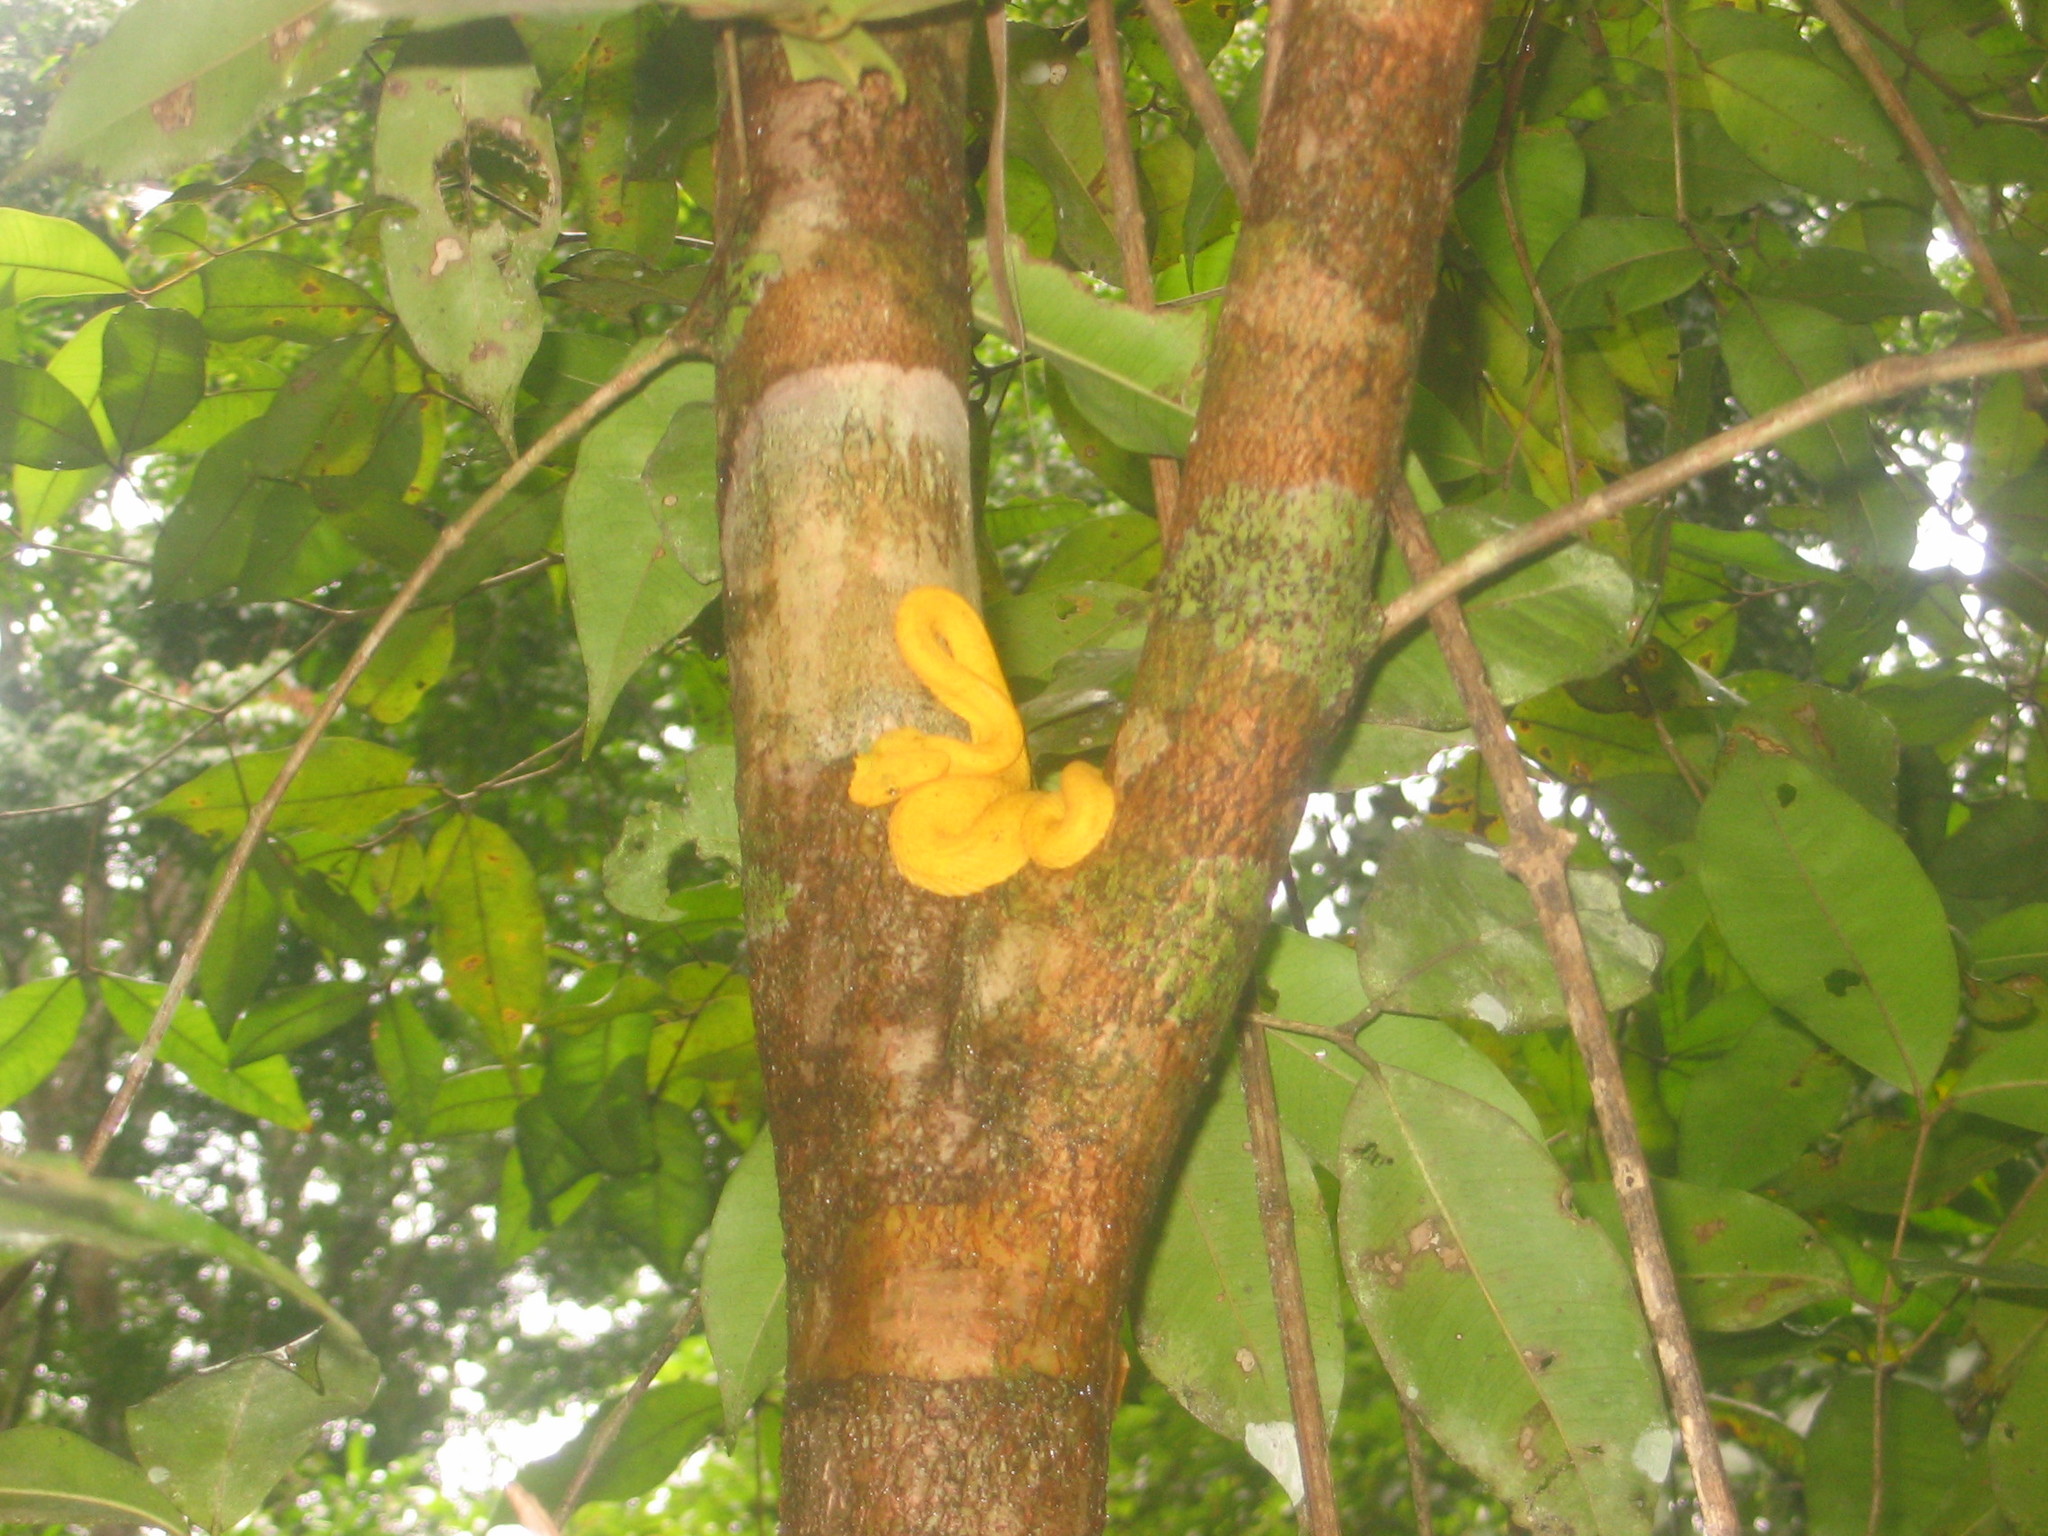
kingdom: Animalia
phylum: Chordata
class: Squamata
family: Viperidae
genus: Bothriechis
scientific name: Bothriechis schlegelii
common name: Eyelash viper
